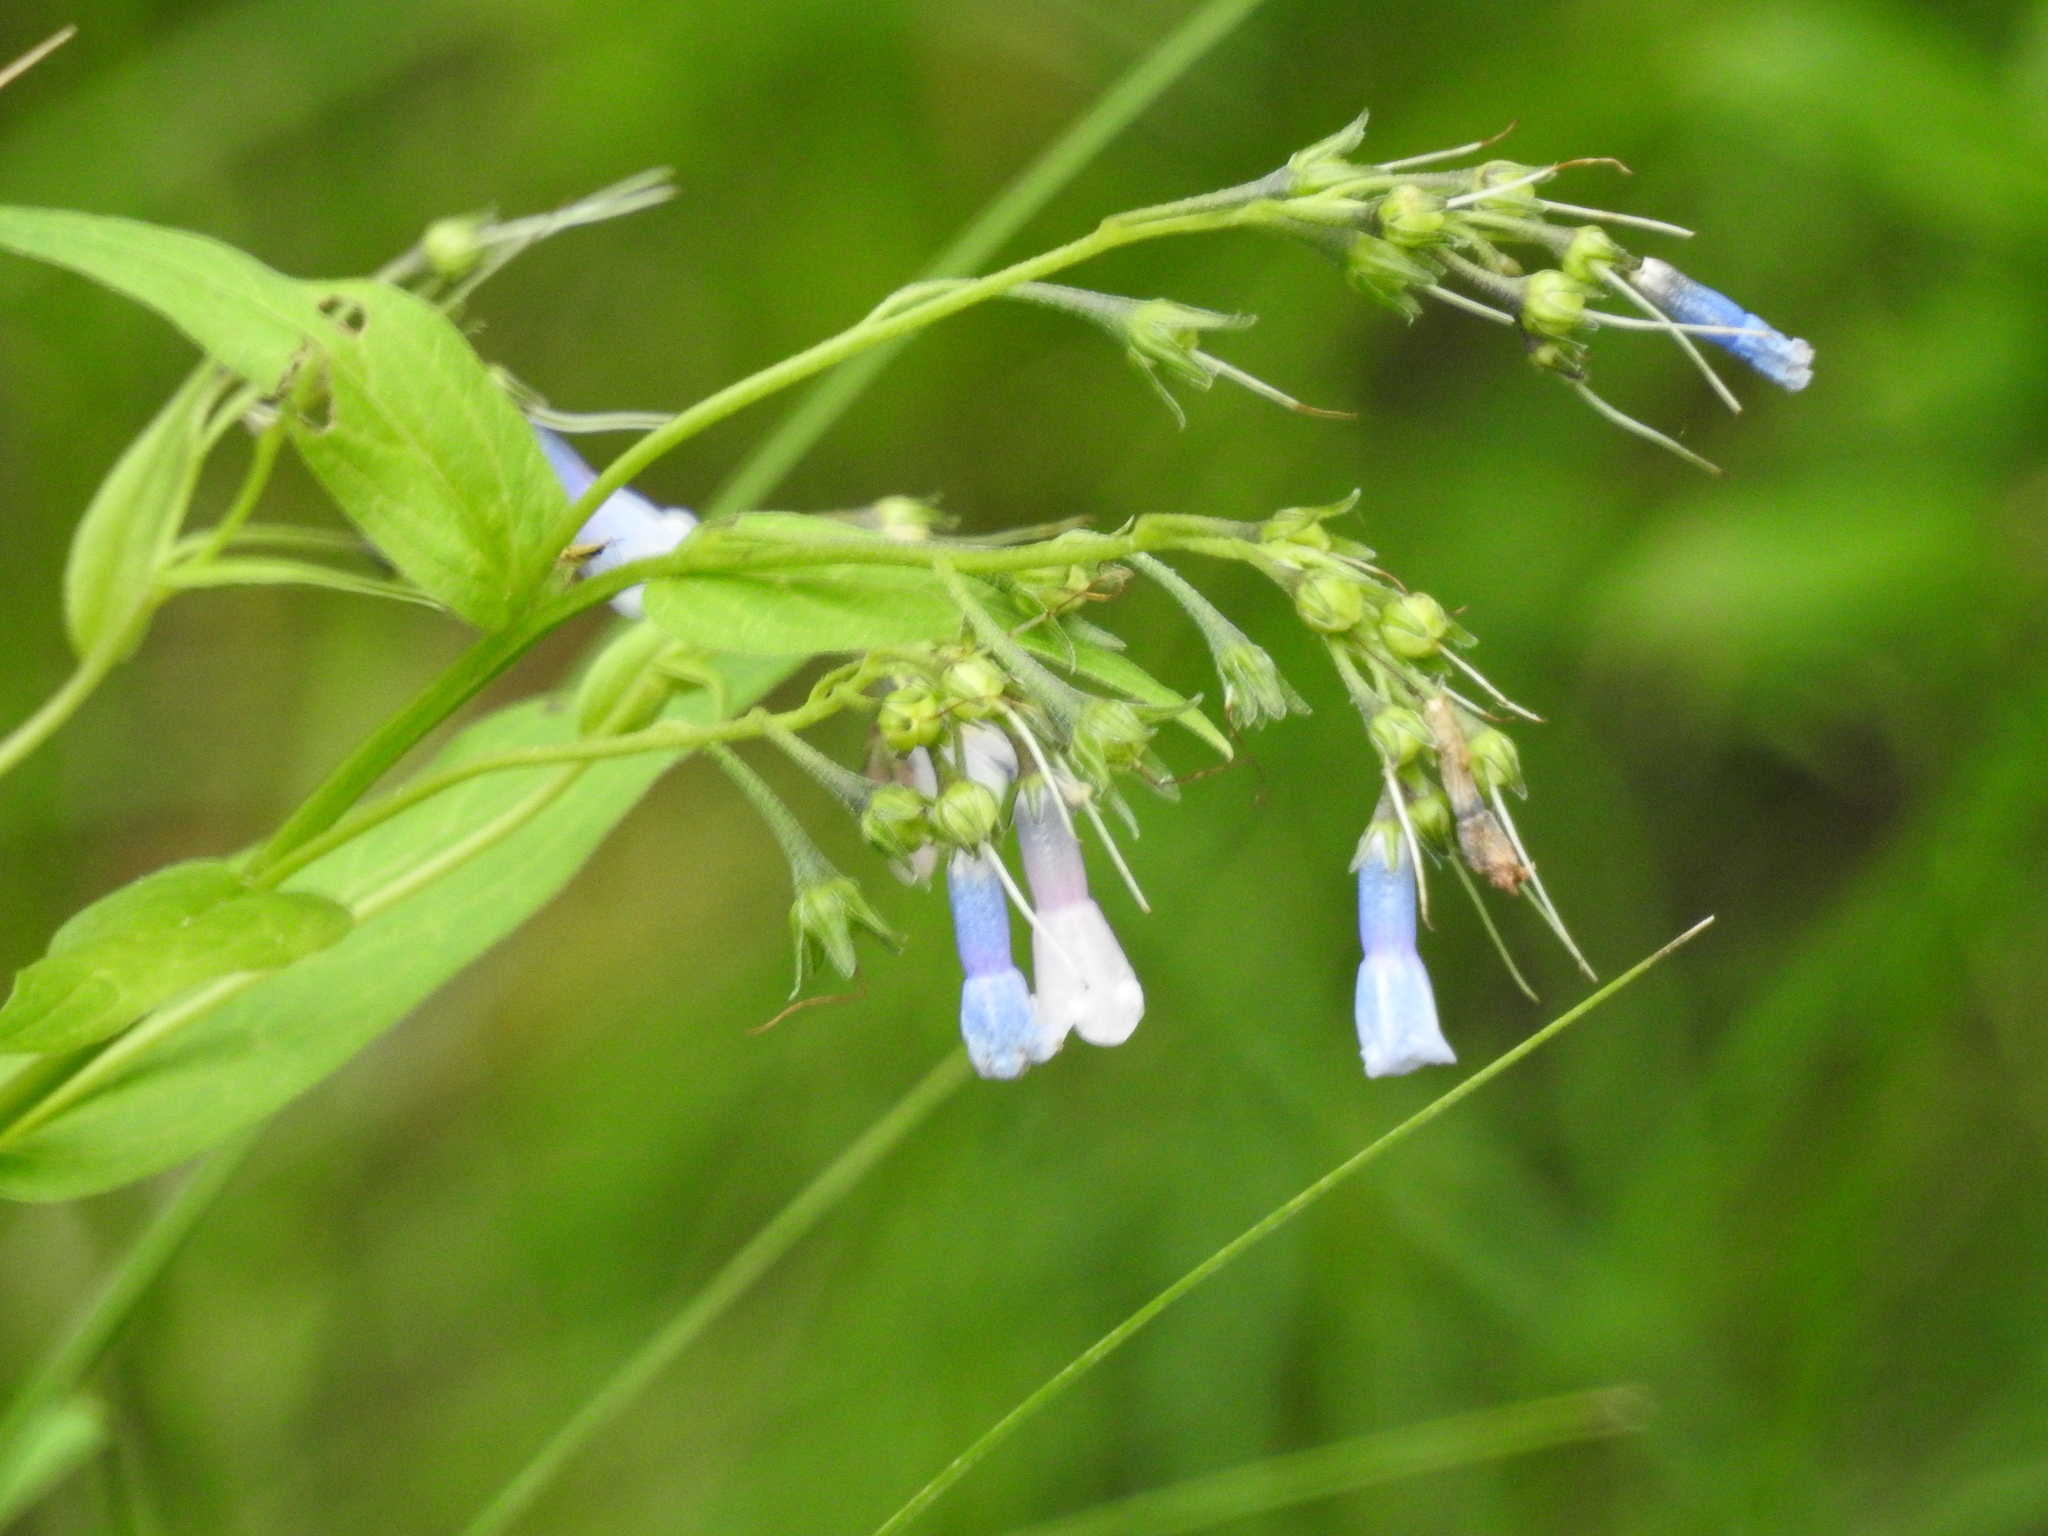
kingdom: Plantae
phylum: Tracheophyta
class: Magnoliopsida
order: Boraginales
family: Boraginaceae
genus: Mertensia
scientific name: Mertensia franciscana
